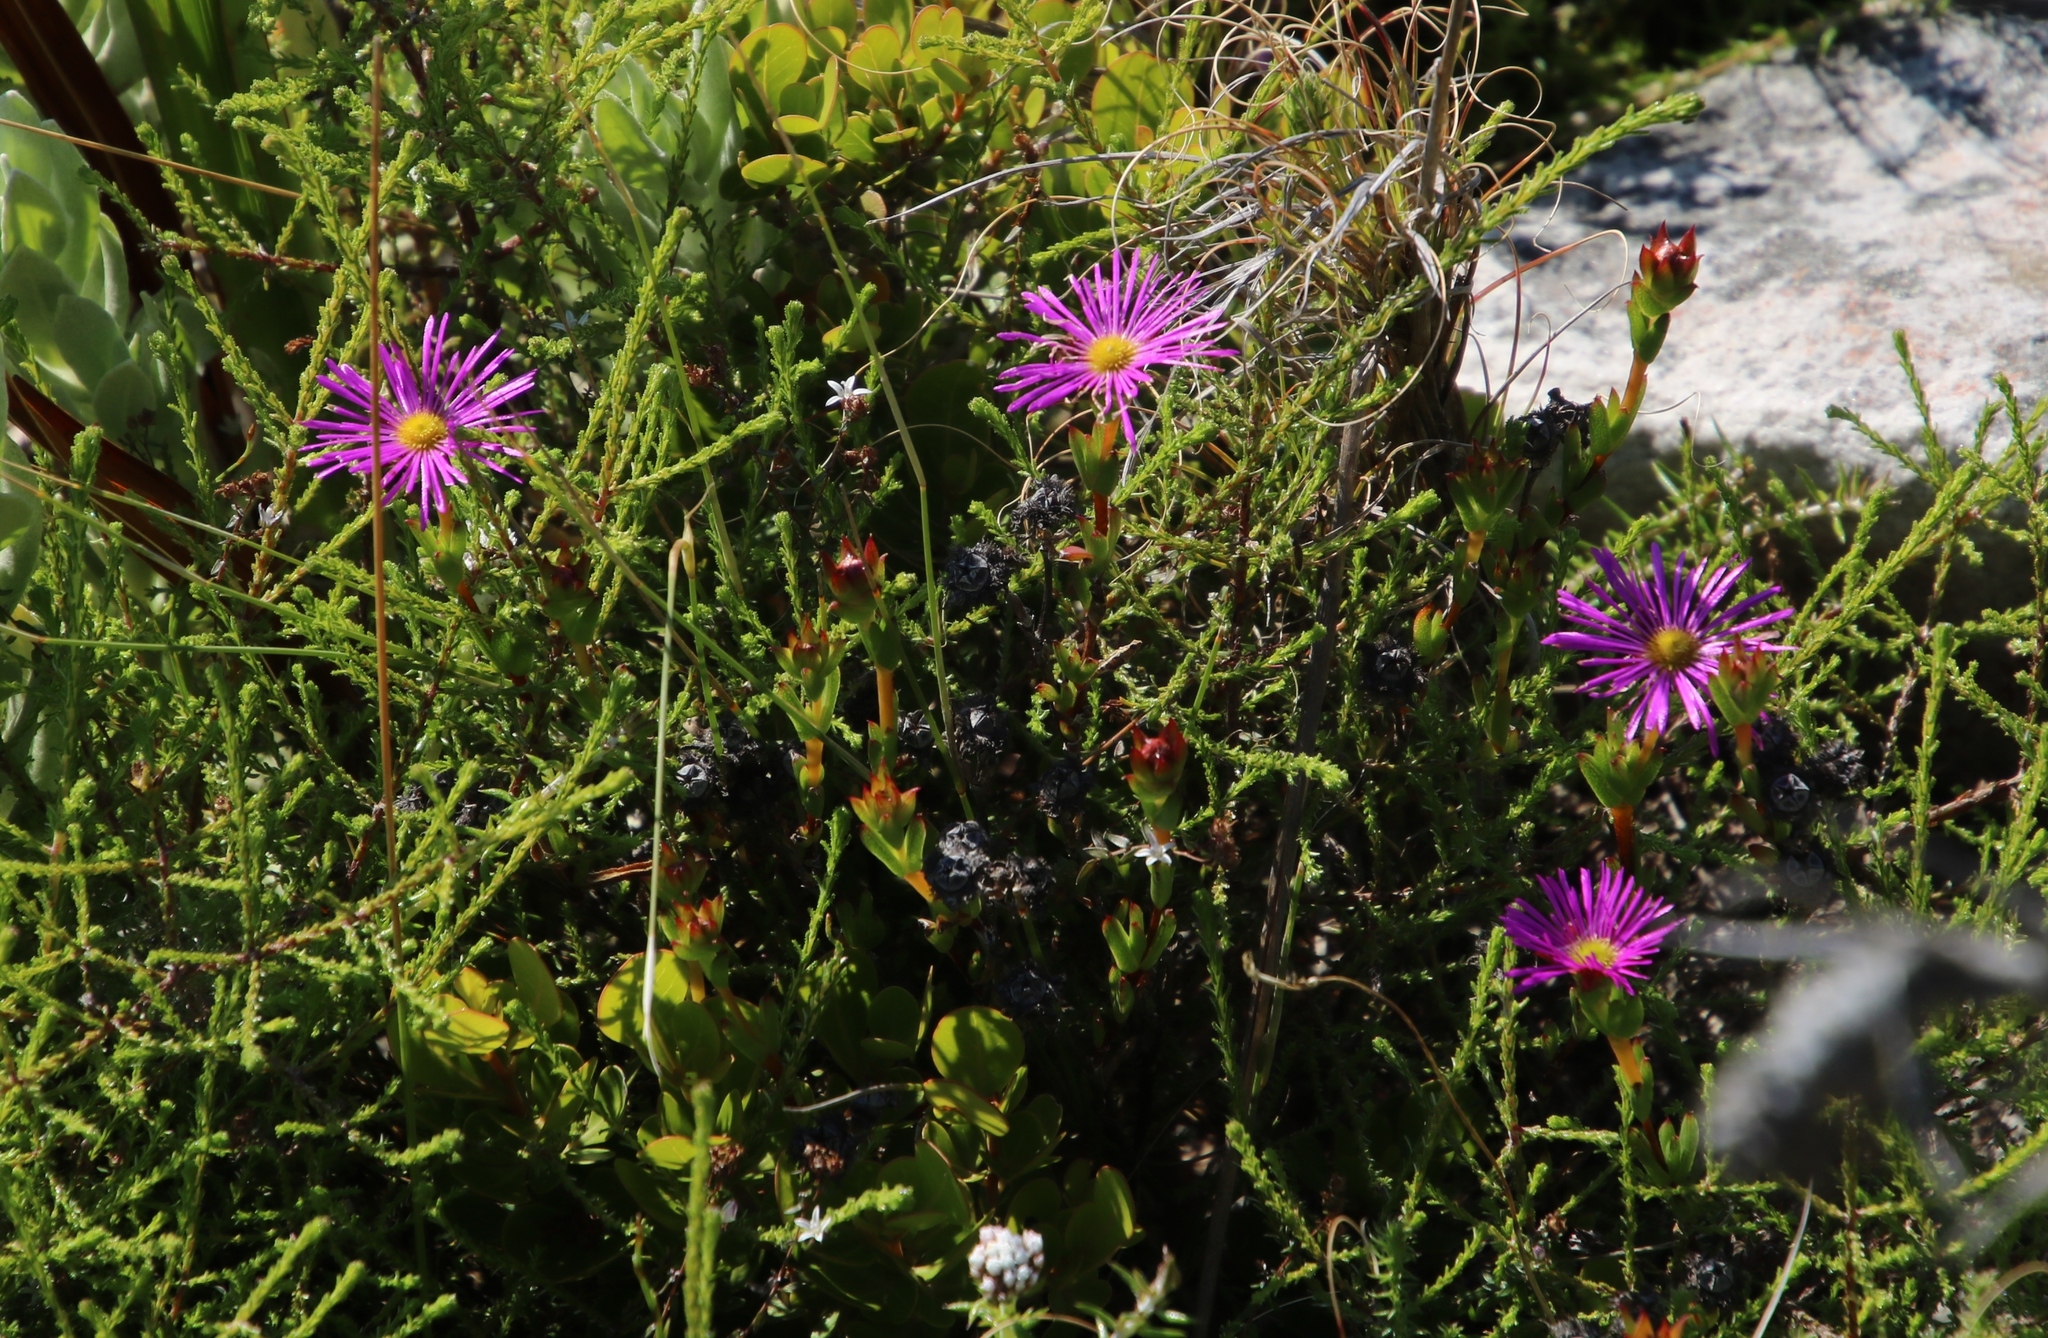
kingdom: Plantae
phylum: Tracheophyta
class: Magnoliopsida
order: Caryophyllales
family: Aizoaceae
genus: Erepsia
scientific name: Erepsia bracteata
